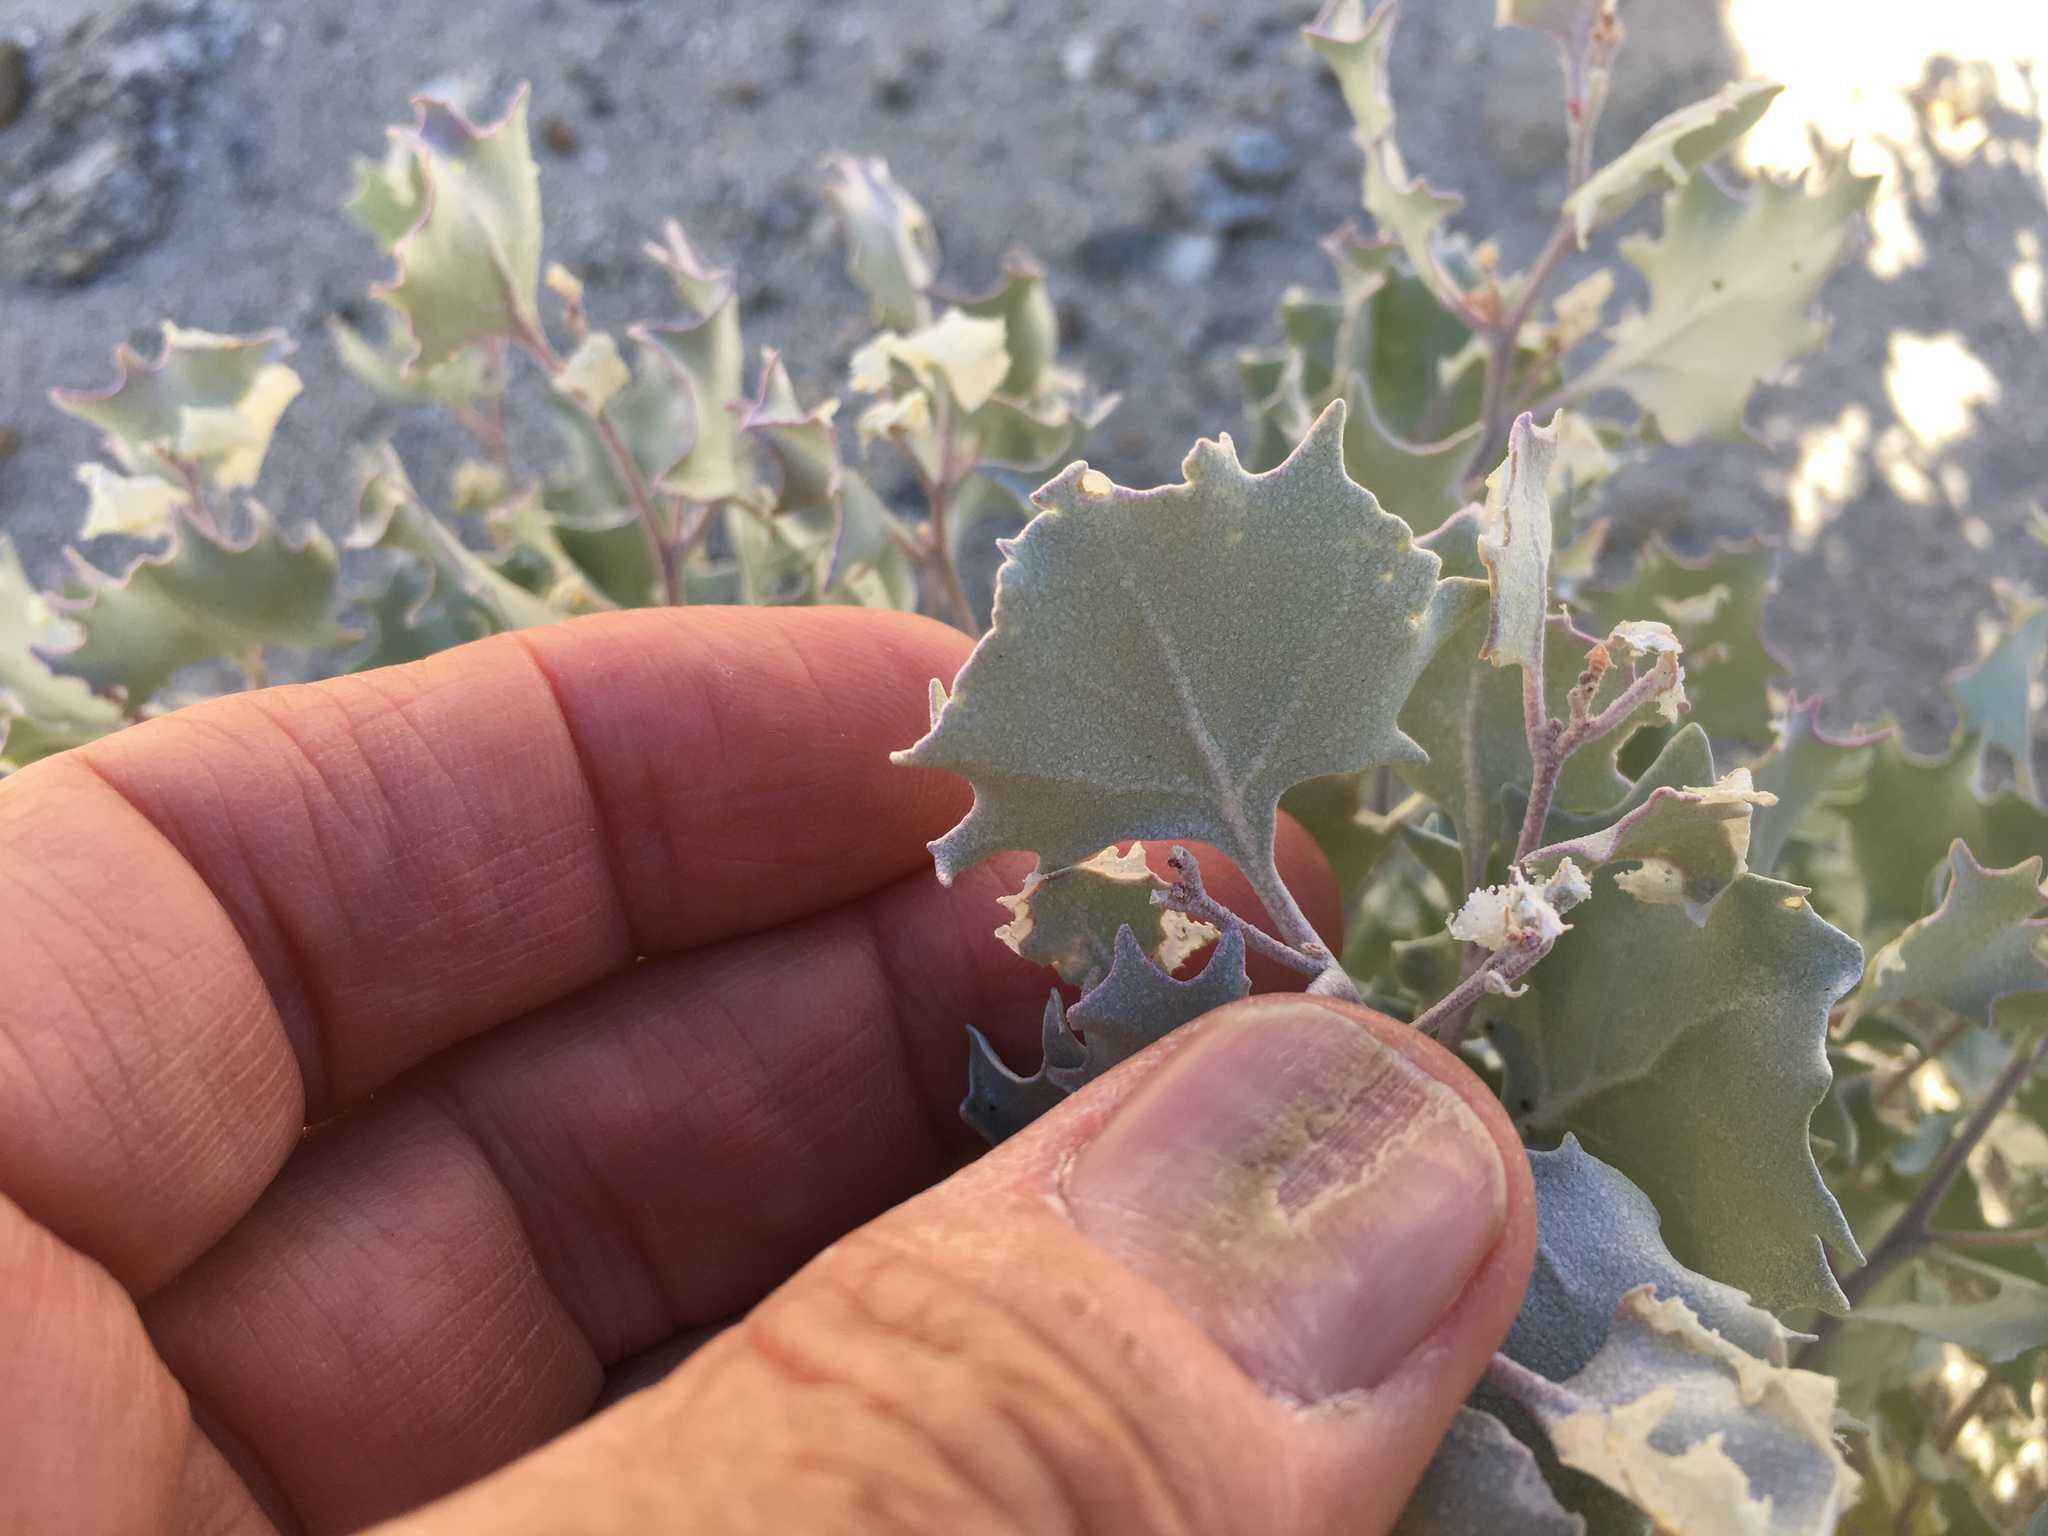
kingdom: Plantae
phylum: Tracheophyta
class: Magnoliopsida
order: Caryophyllales
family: Amaranthaceae
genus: Atriplex
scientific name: Atriplex hymenelytra
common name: Desert-holly
